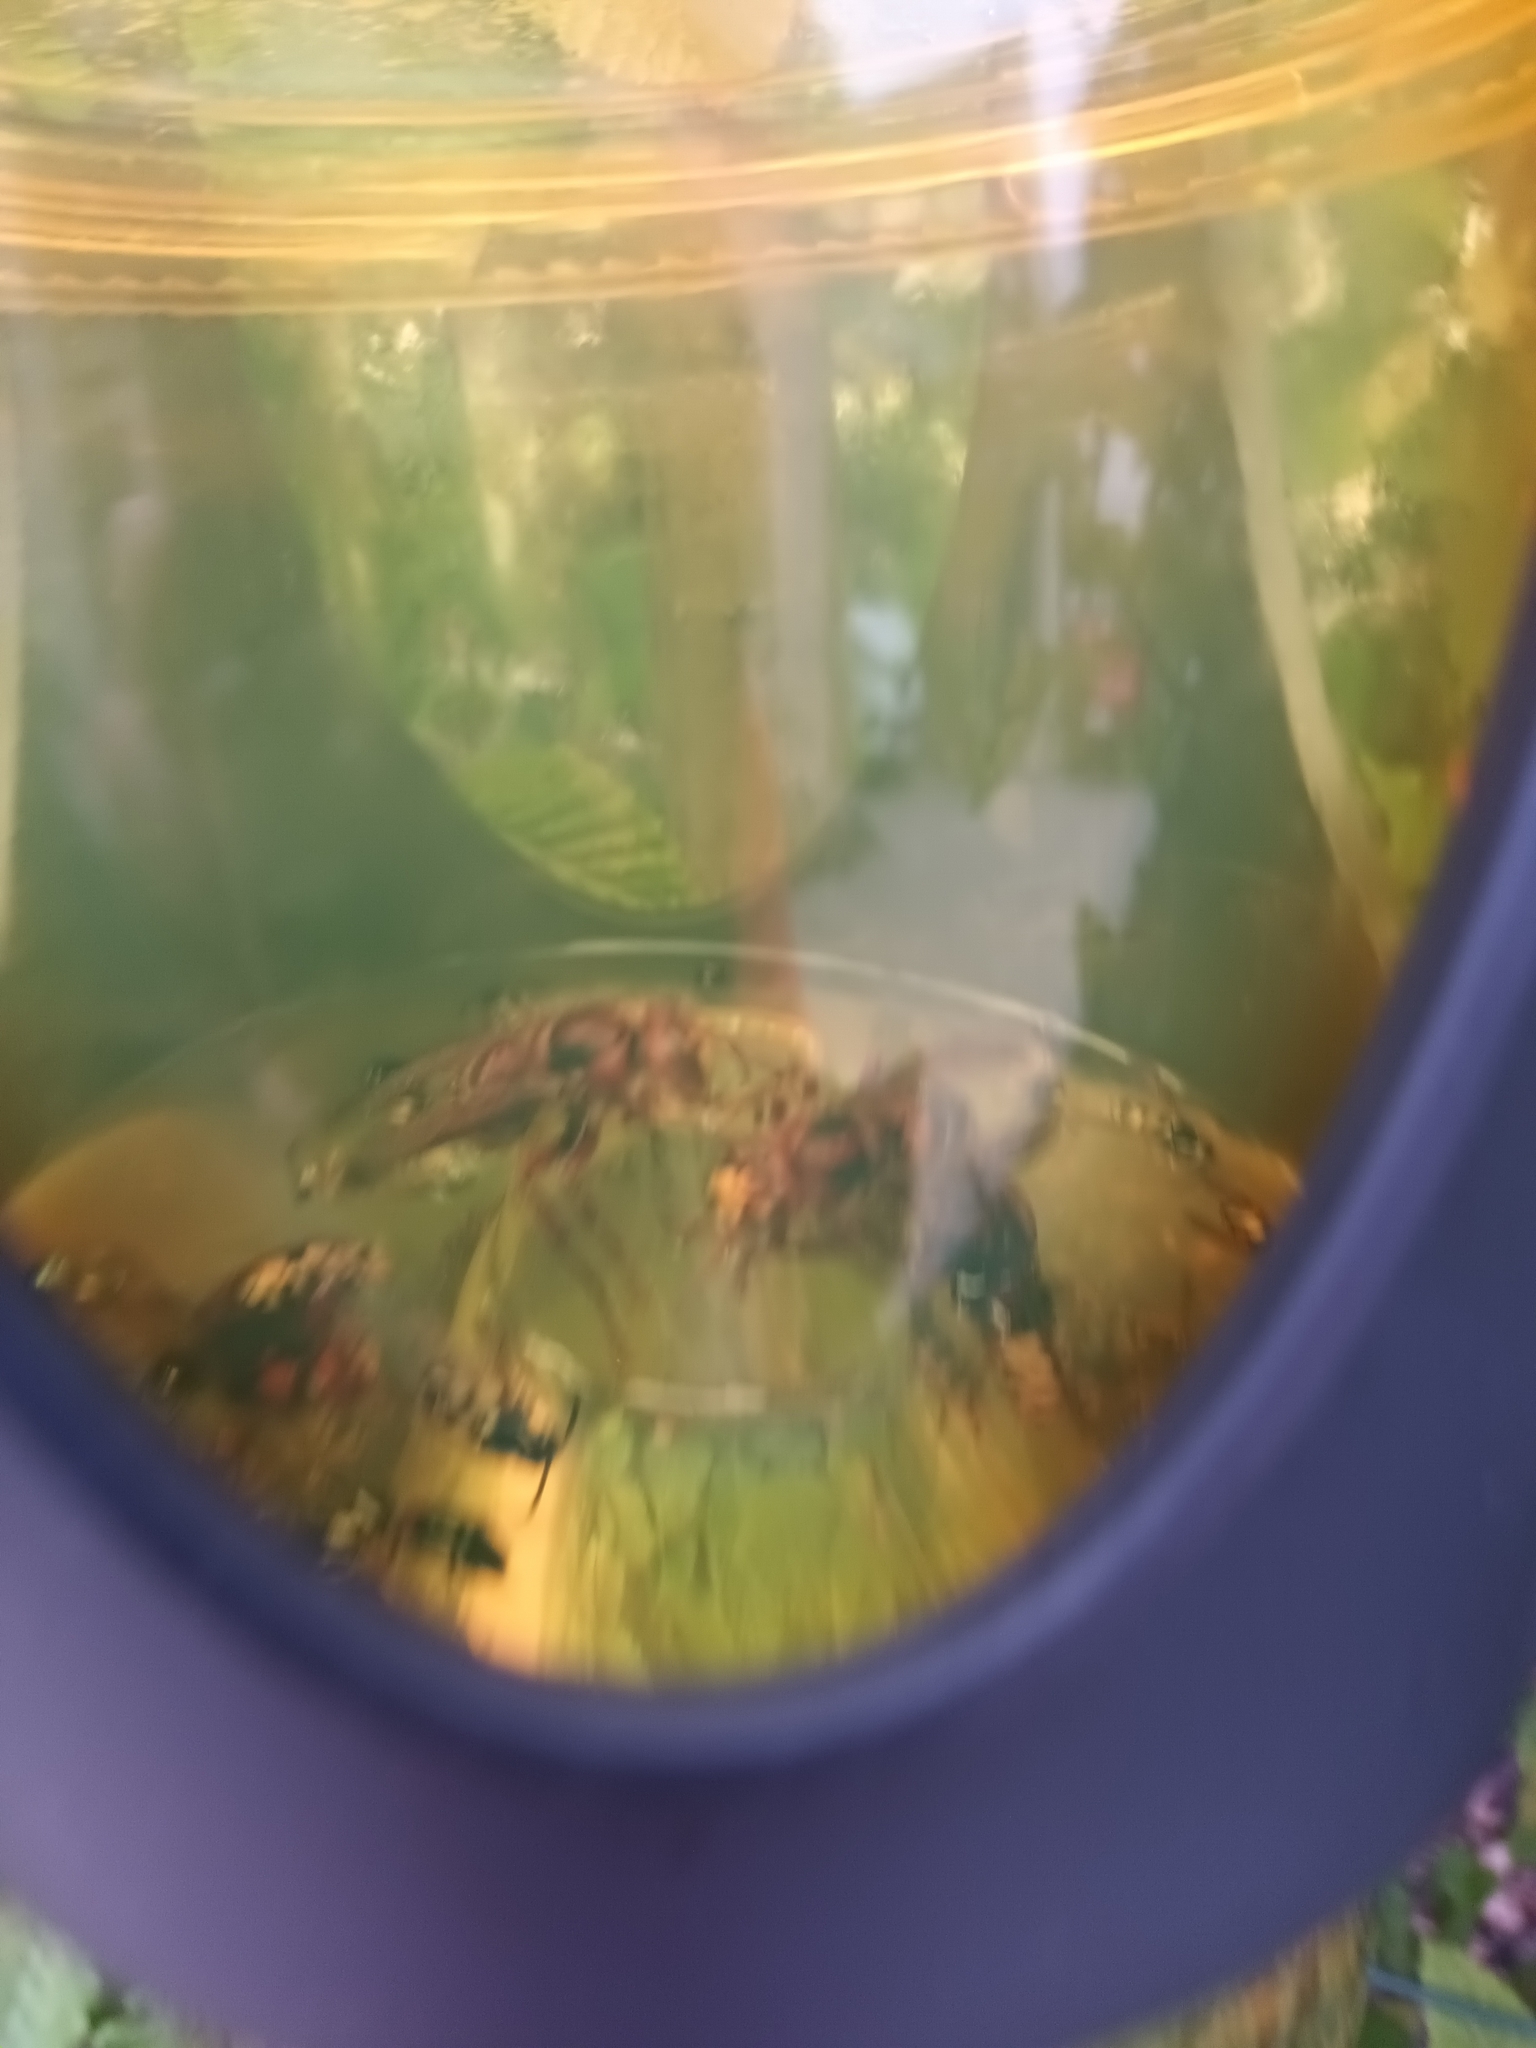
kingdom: Animalia
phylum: Arthropoda
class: Insecta
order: Hymenoptera
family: Vespidae
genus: Vespa
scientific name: Vespa crabro
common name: Hornet
